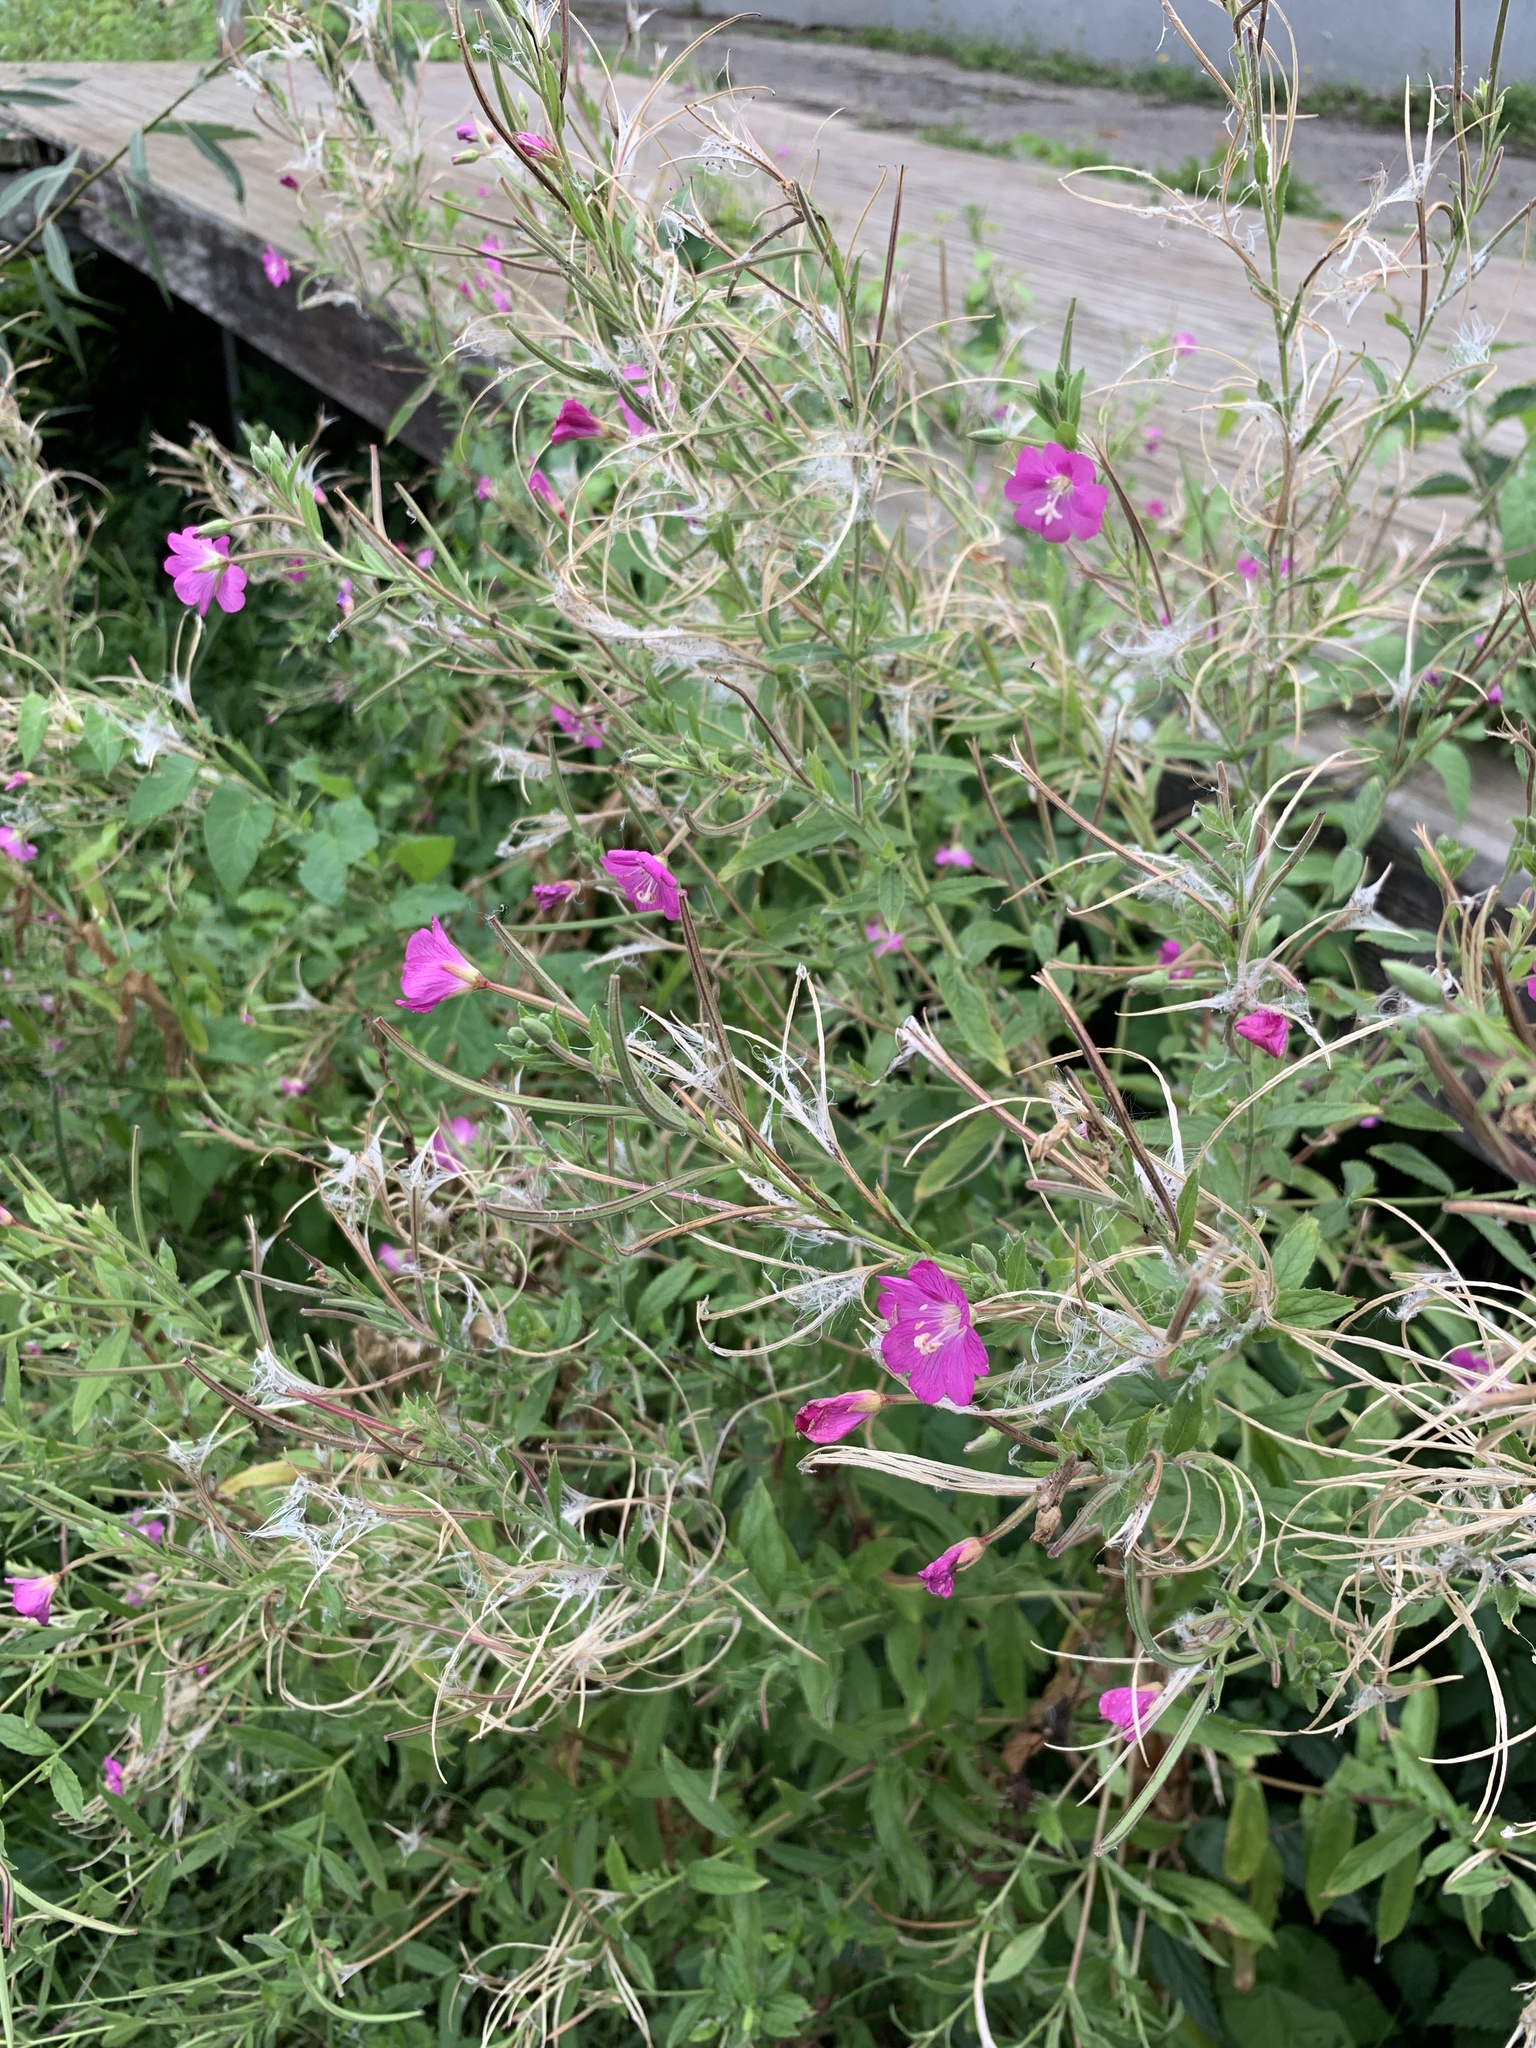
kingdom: Plantae
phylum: Tracheophyta
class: Magnoliopsida
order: Myrtales
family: Onagraceae
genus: Epilobium
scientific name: Epilobium hirsutum
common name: Great willowherb
